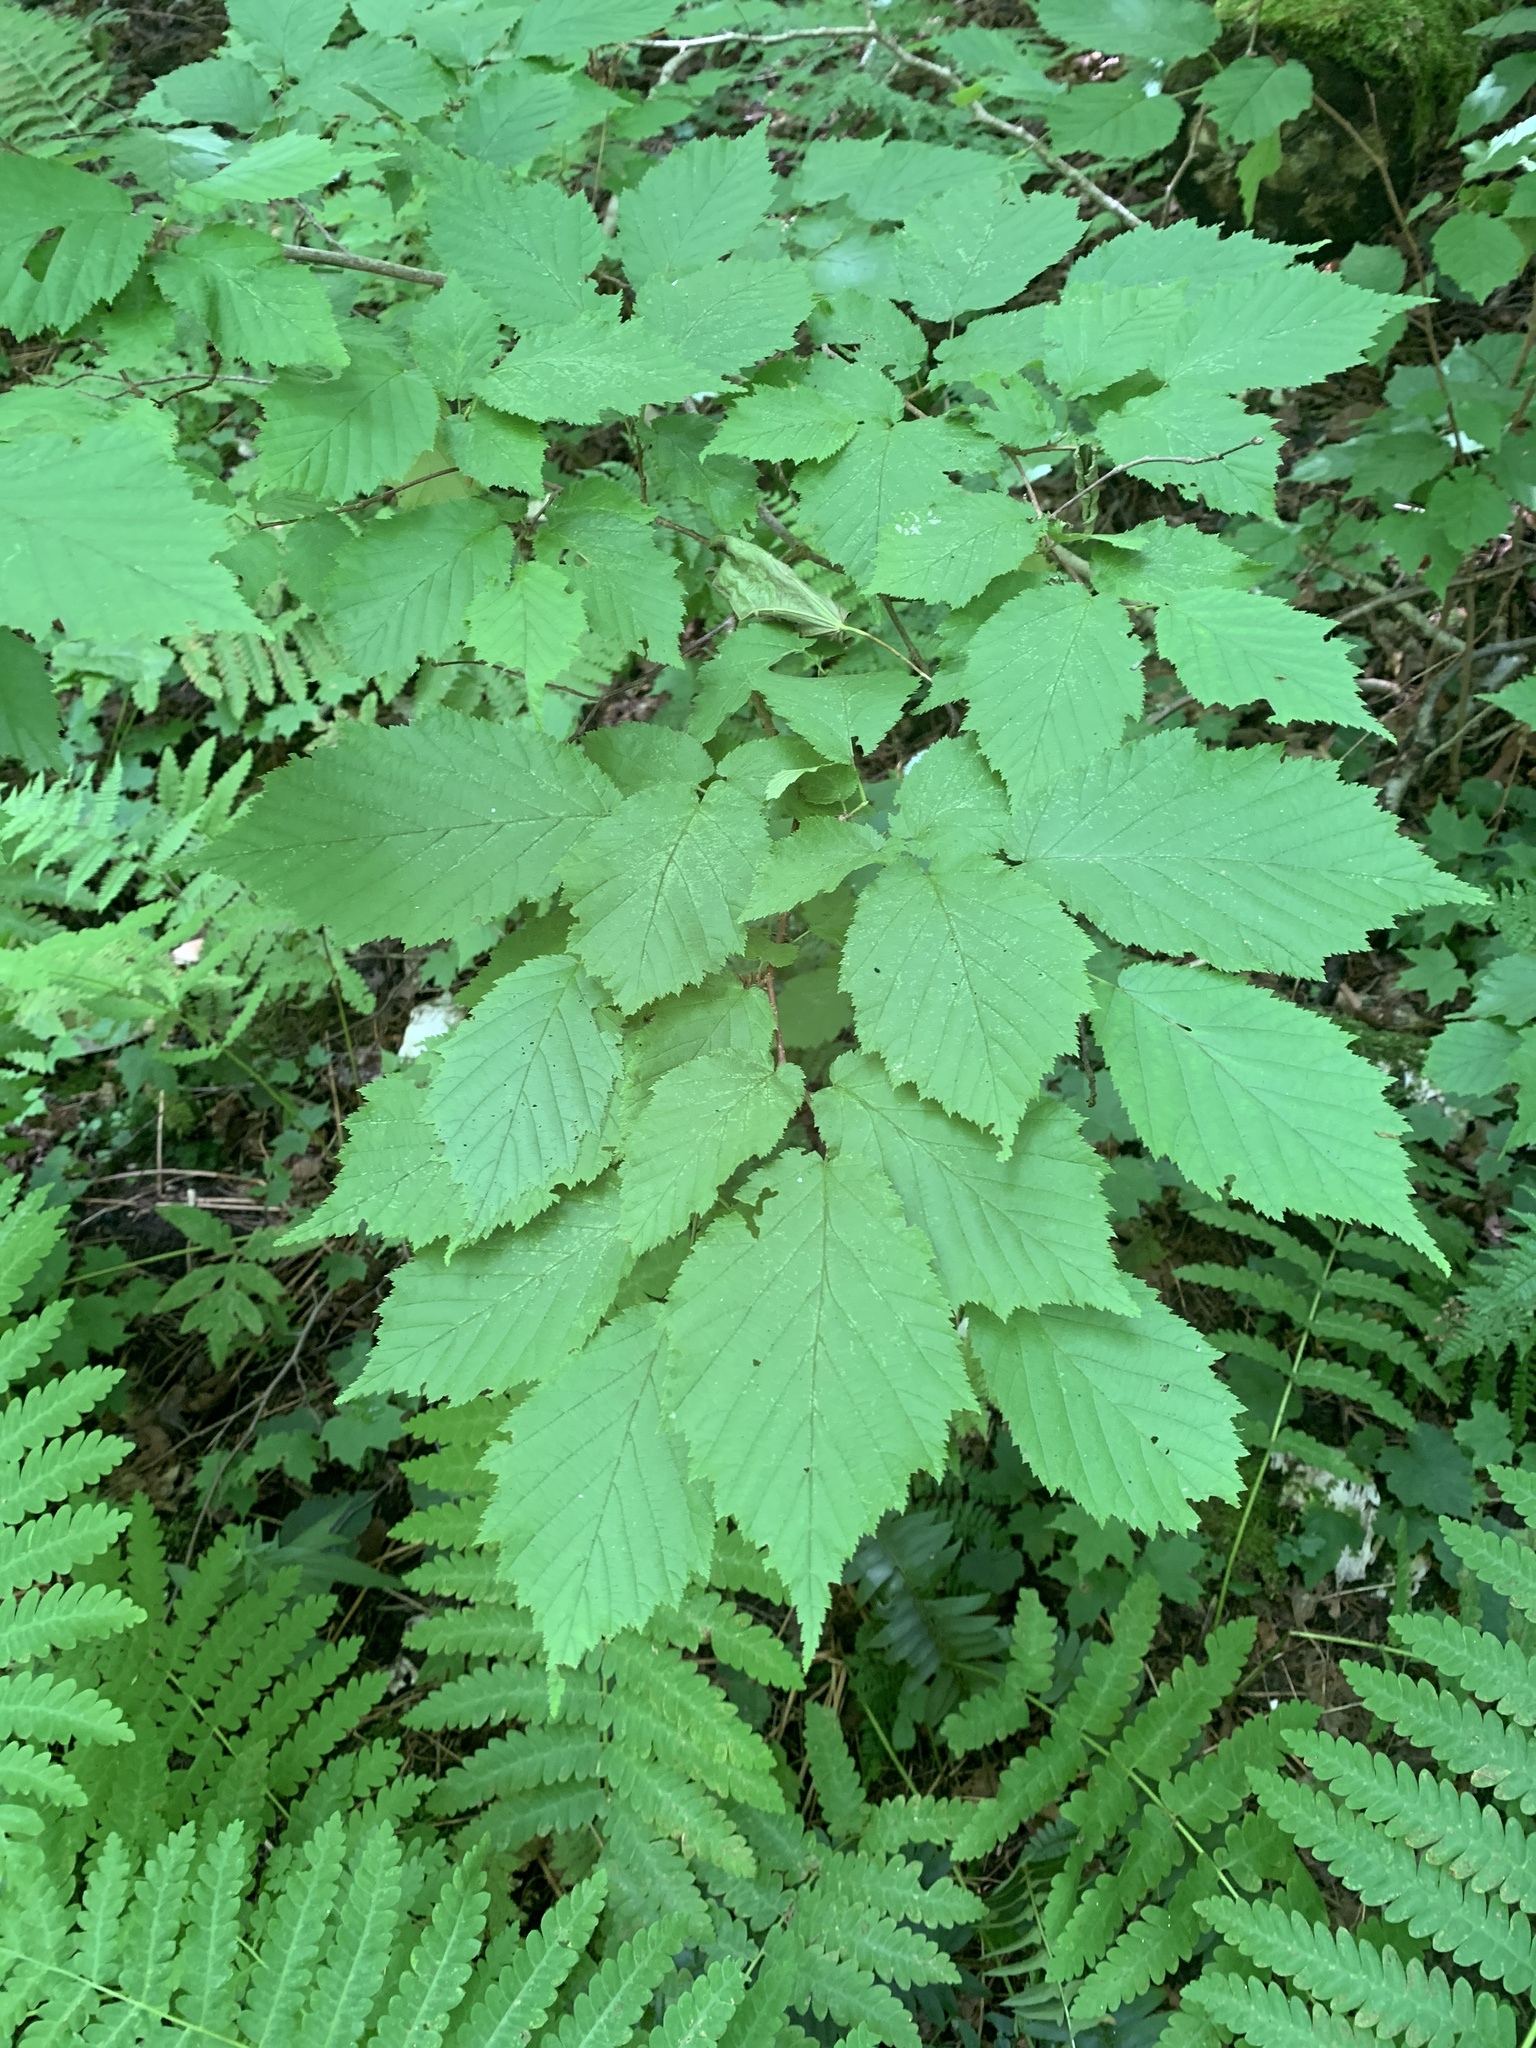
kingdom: Plantae
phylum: Tracheophyta
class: Magnoliopsida
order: Fagales
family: Betulaceae
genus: Corylus
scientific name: Corylus cornuta
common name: Beaked hazel
